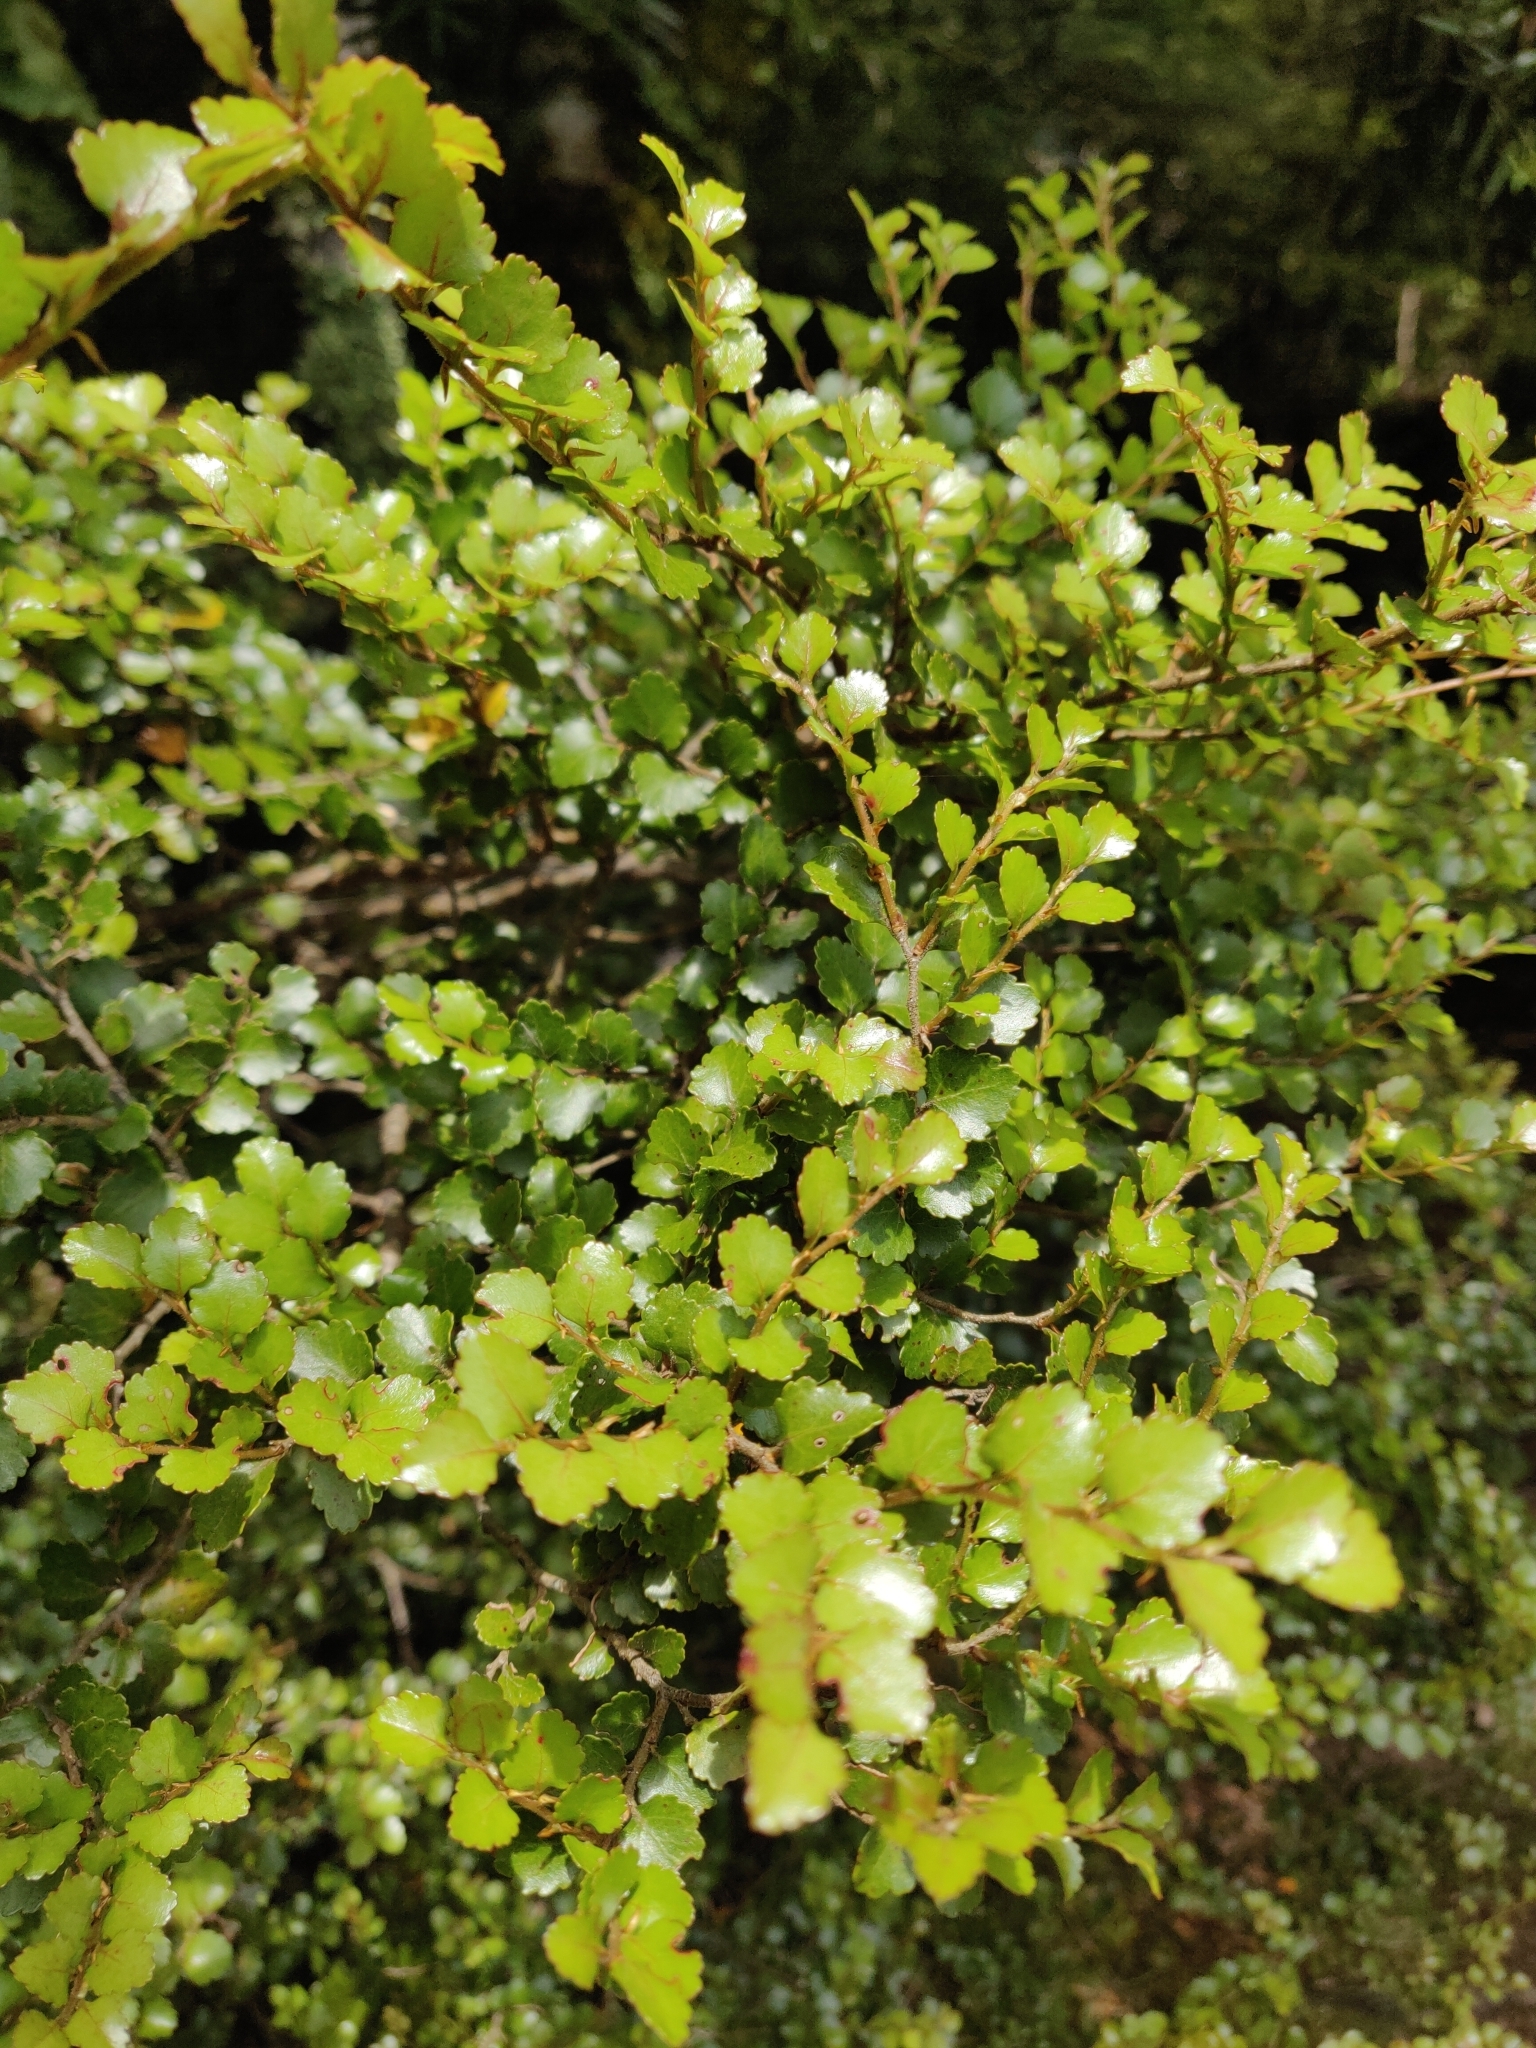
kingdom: Plantae
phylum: Tracheophyta
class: Magnoliopsida
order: Fagales
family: Nothofagaceae
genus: Nothofagus
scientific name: Nothofagus menziesii
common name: Silver beech
